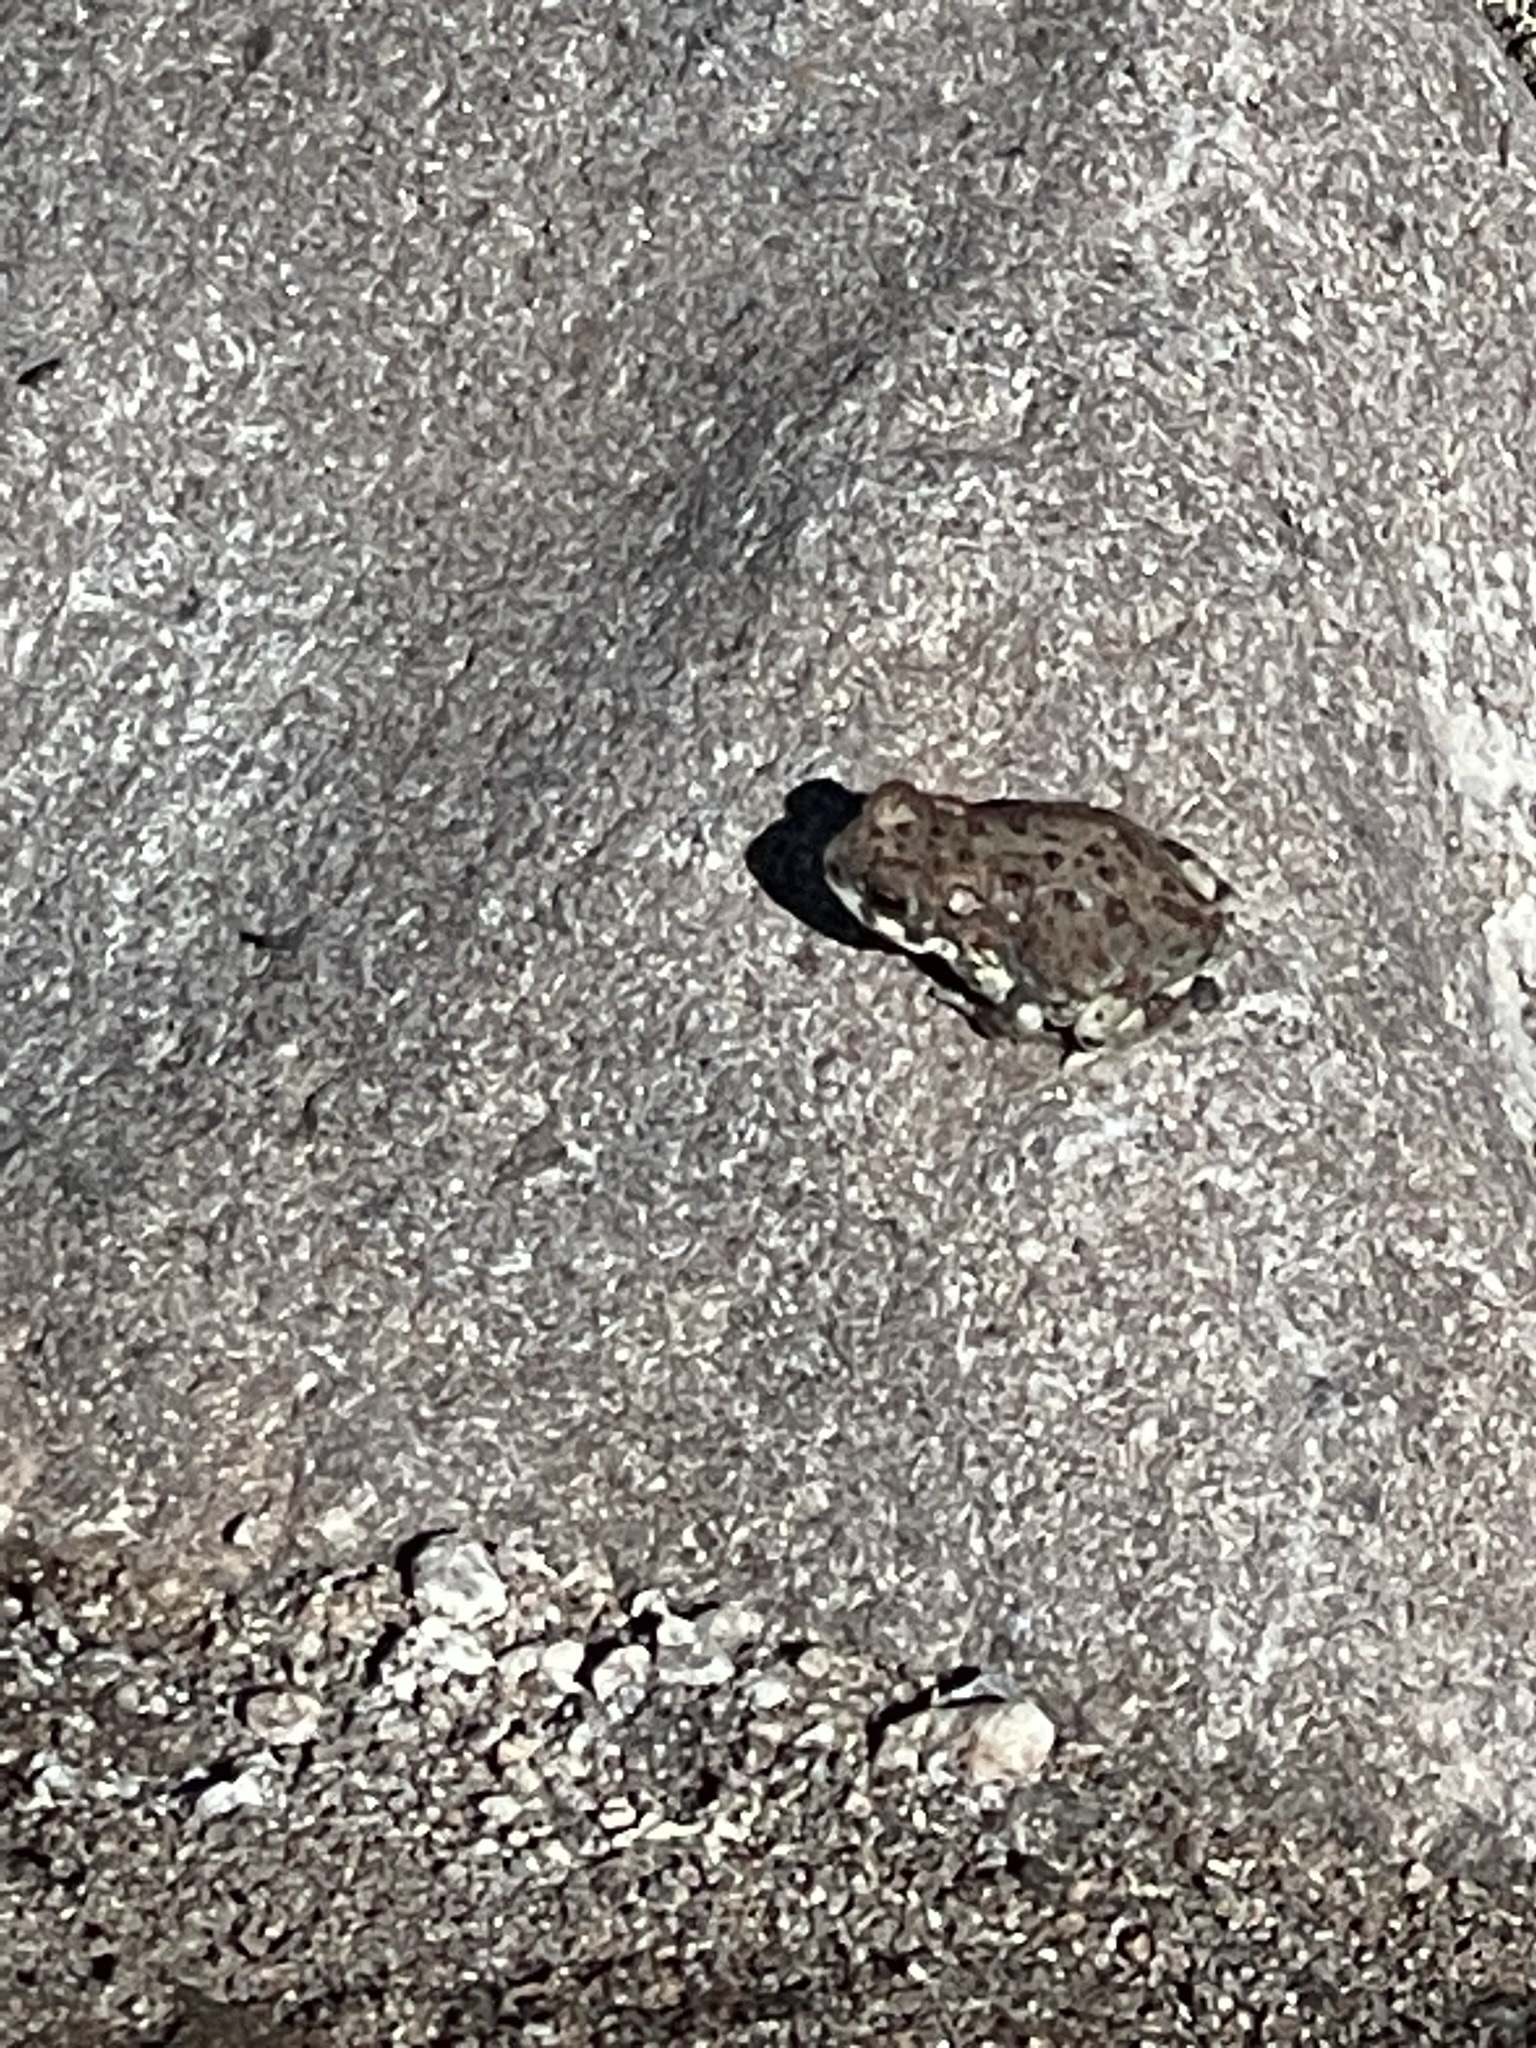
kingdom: Animalia
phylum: Chordata
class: Amphibia
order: Anura
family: Bufonidae
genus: Anaxyrus
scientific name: Anaxyrus punctatus
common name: Red-spotted toad
